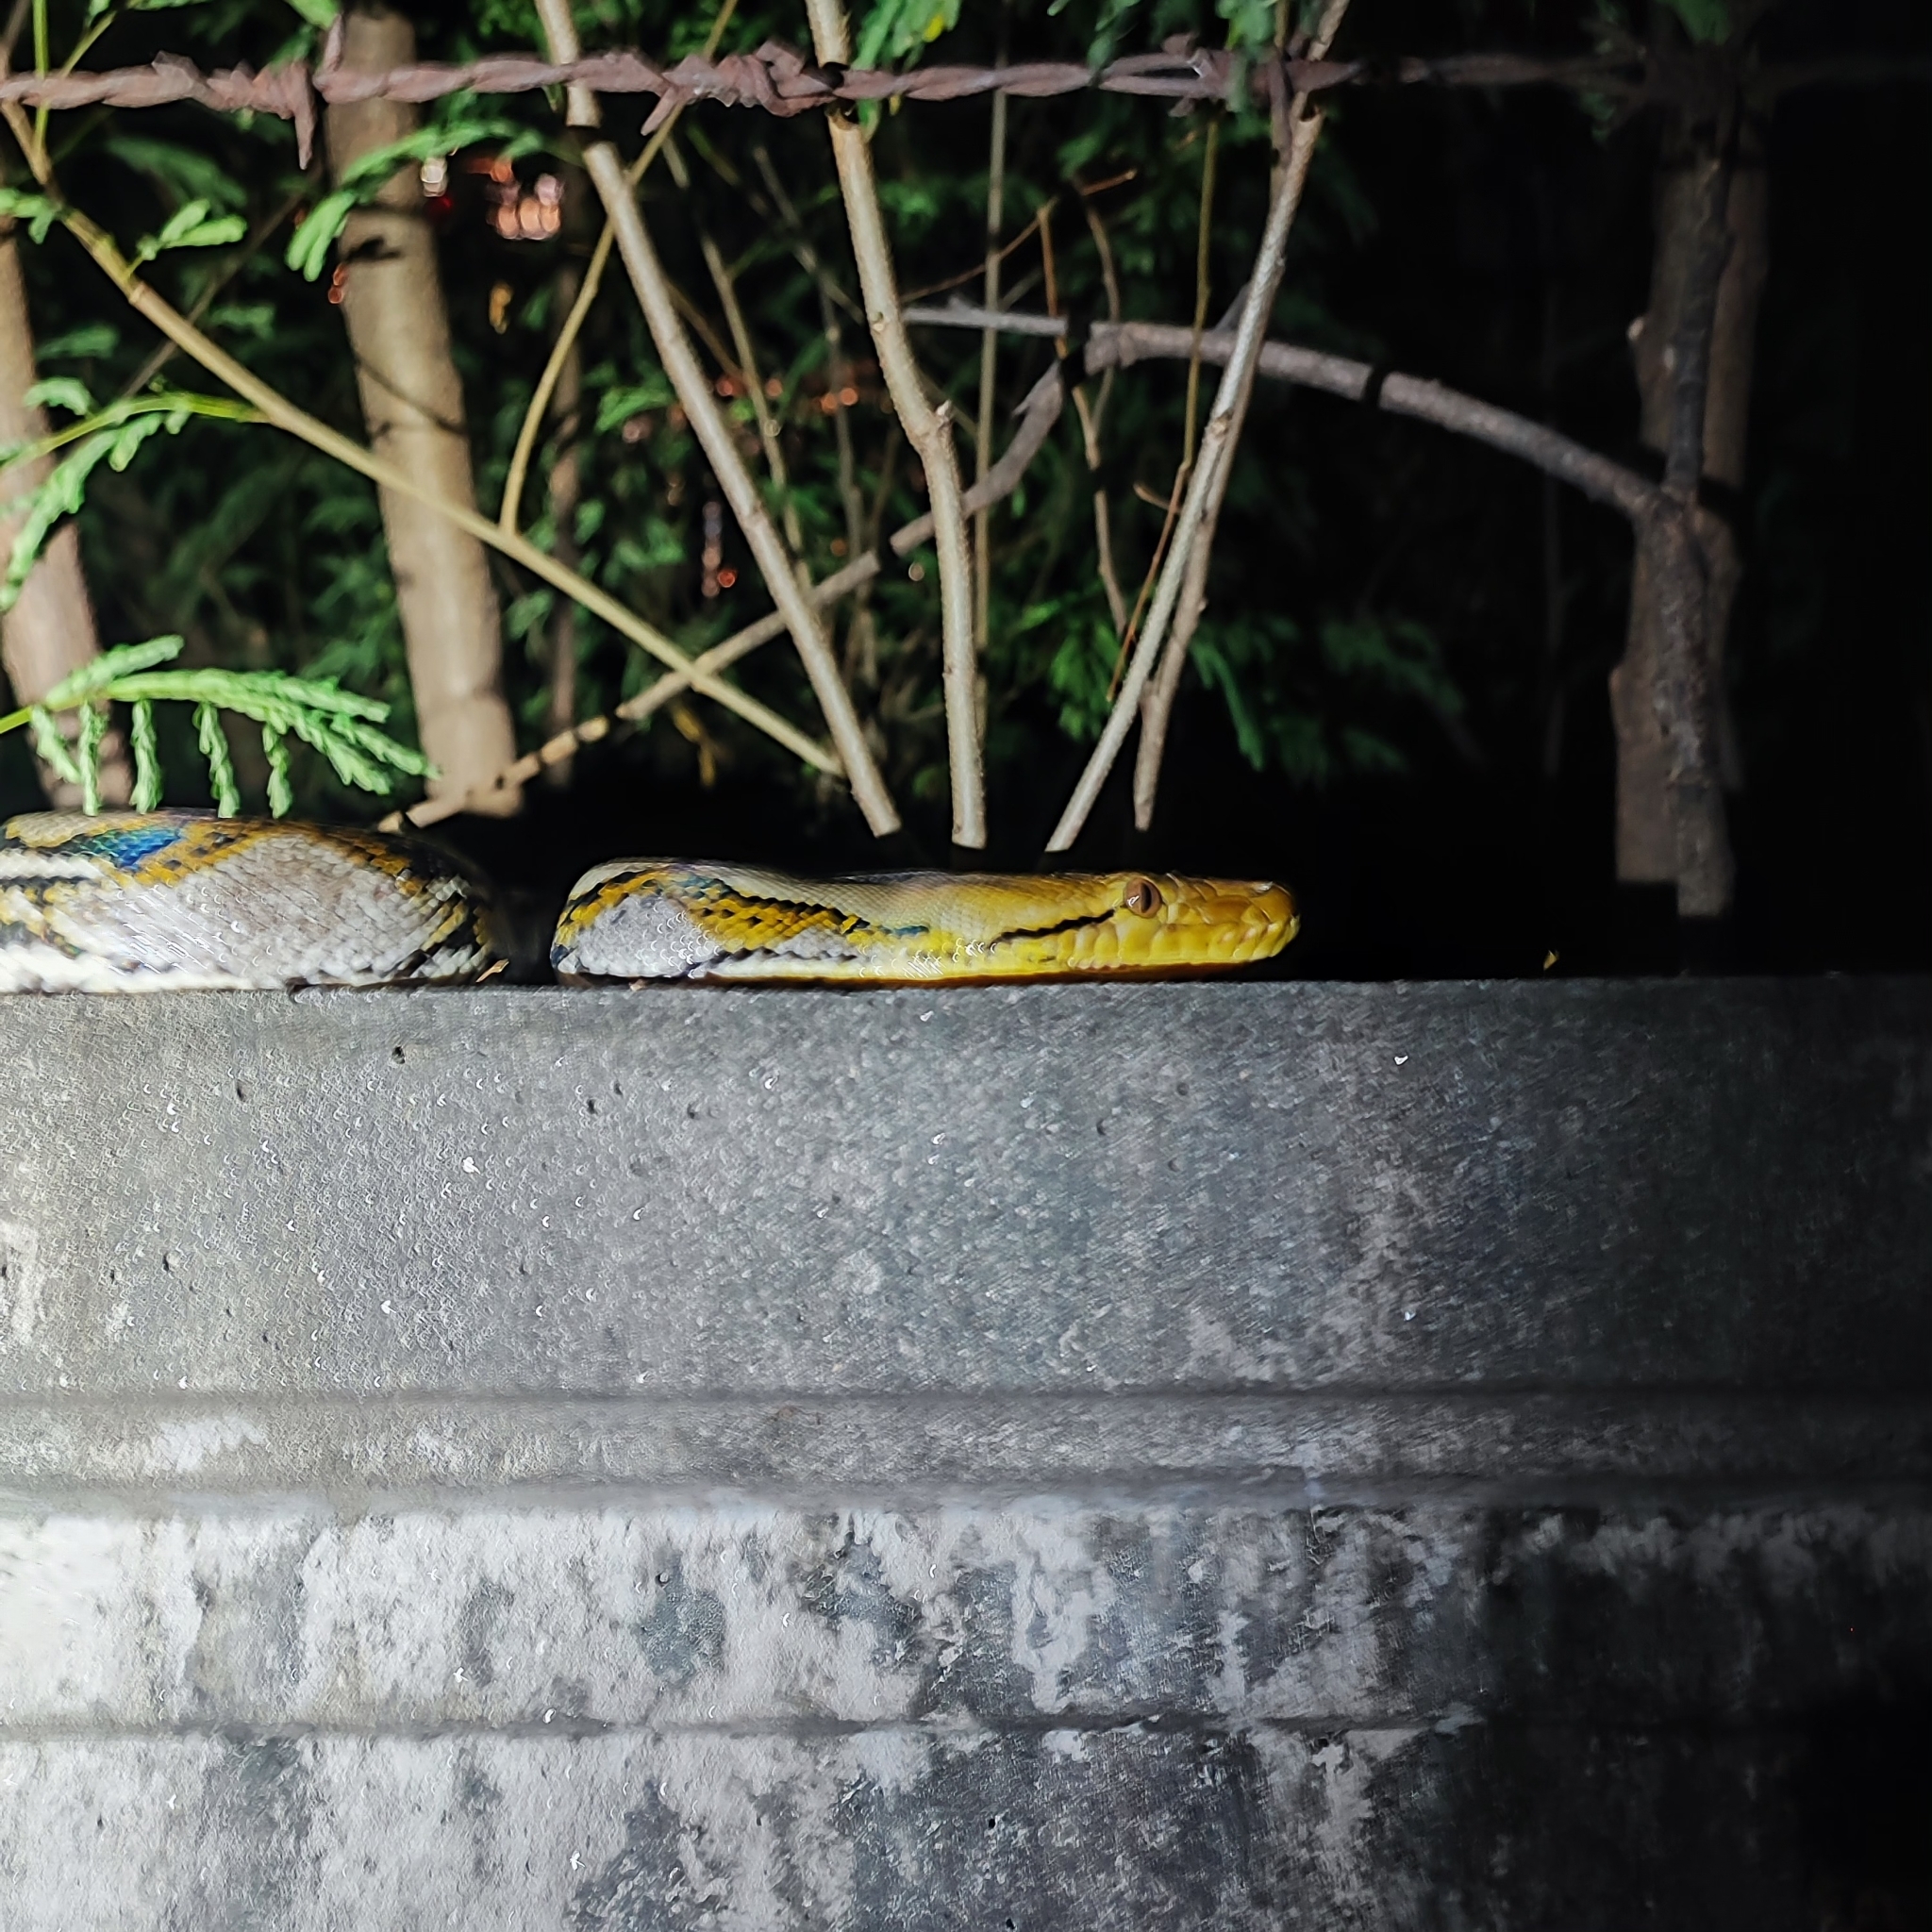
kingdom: Animalia
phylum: Chordata
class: Squamata
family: Pythonidae
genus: Malayopython
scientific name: Malayopython reticulatus
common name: Reticulated python
